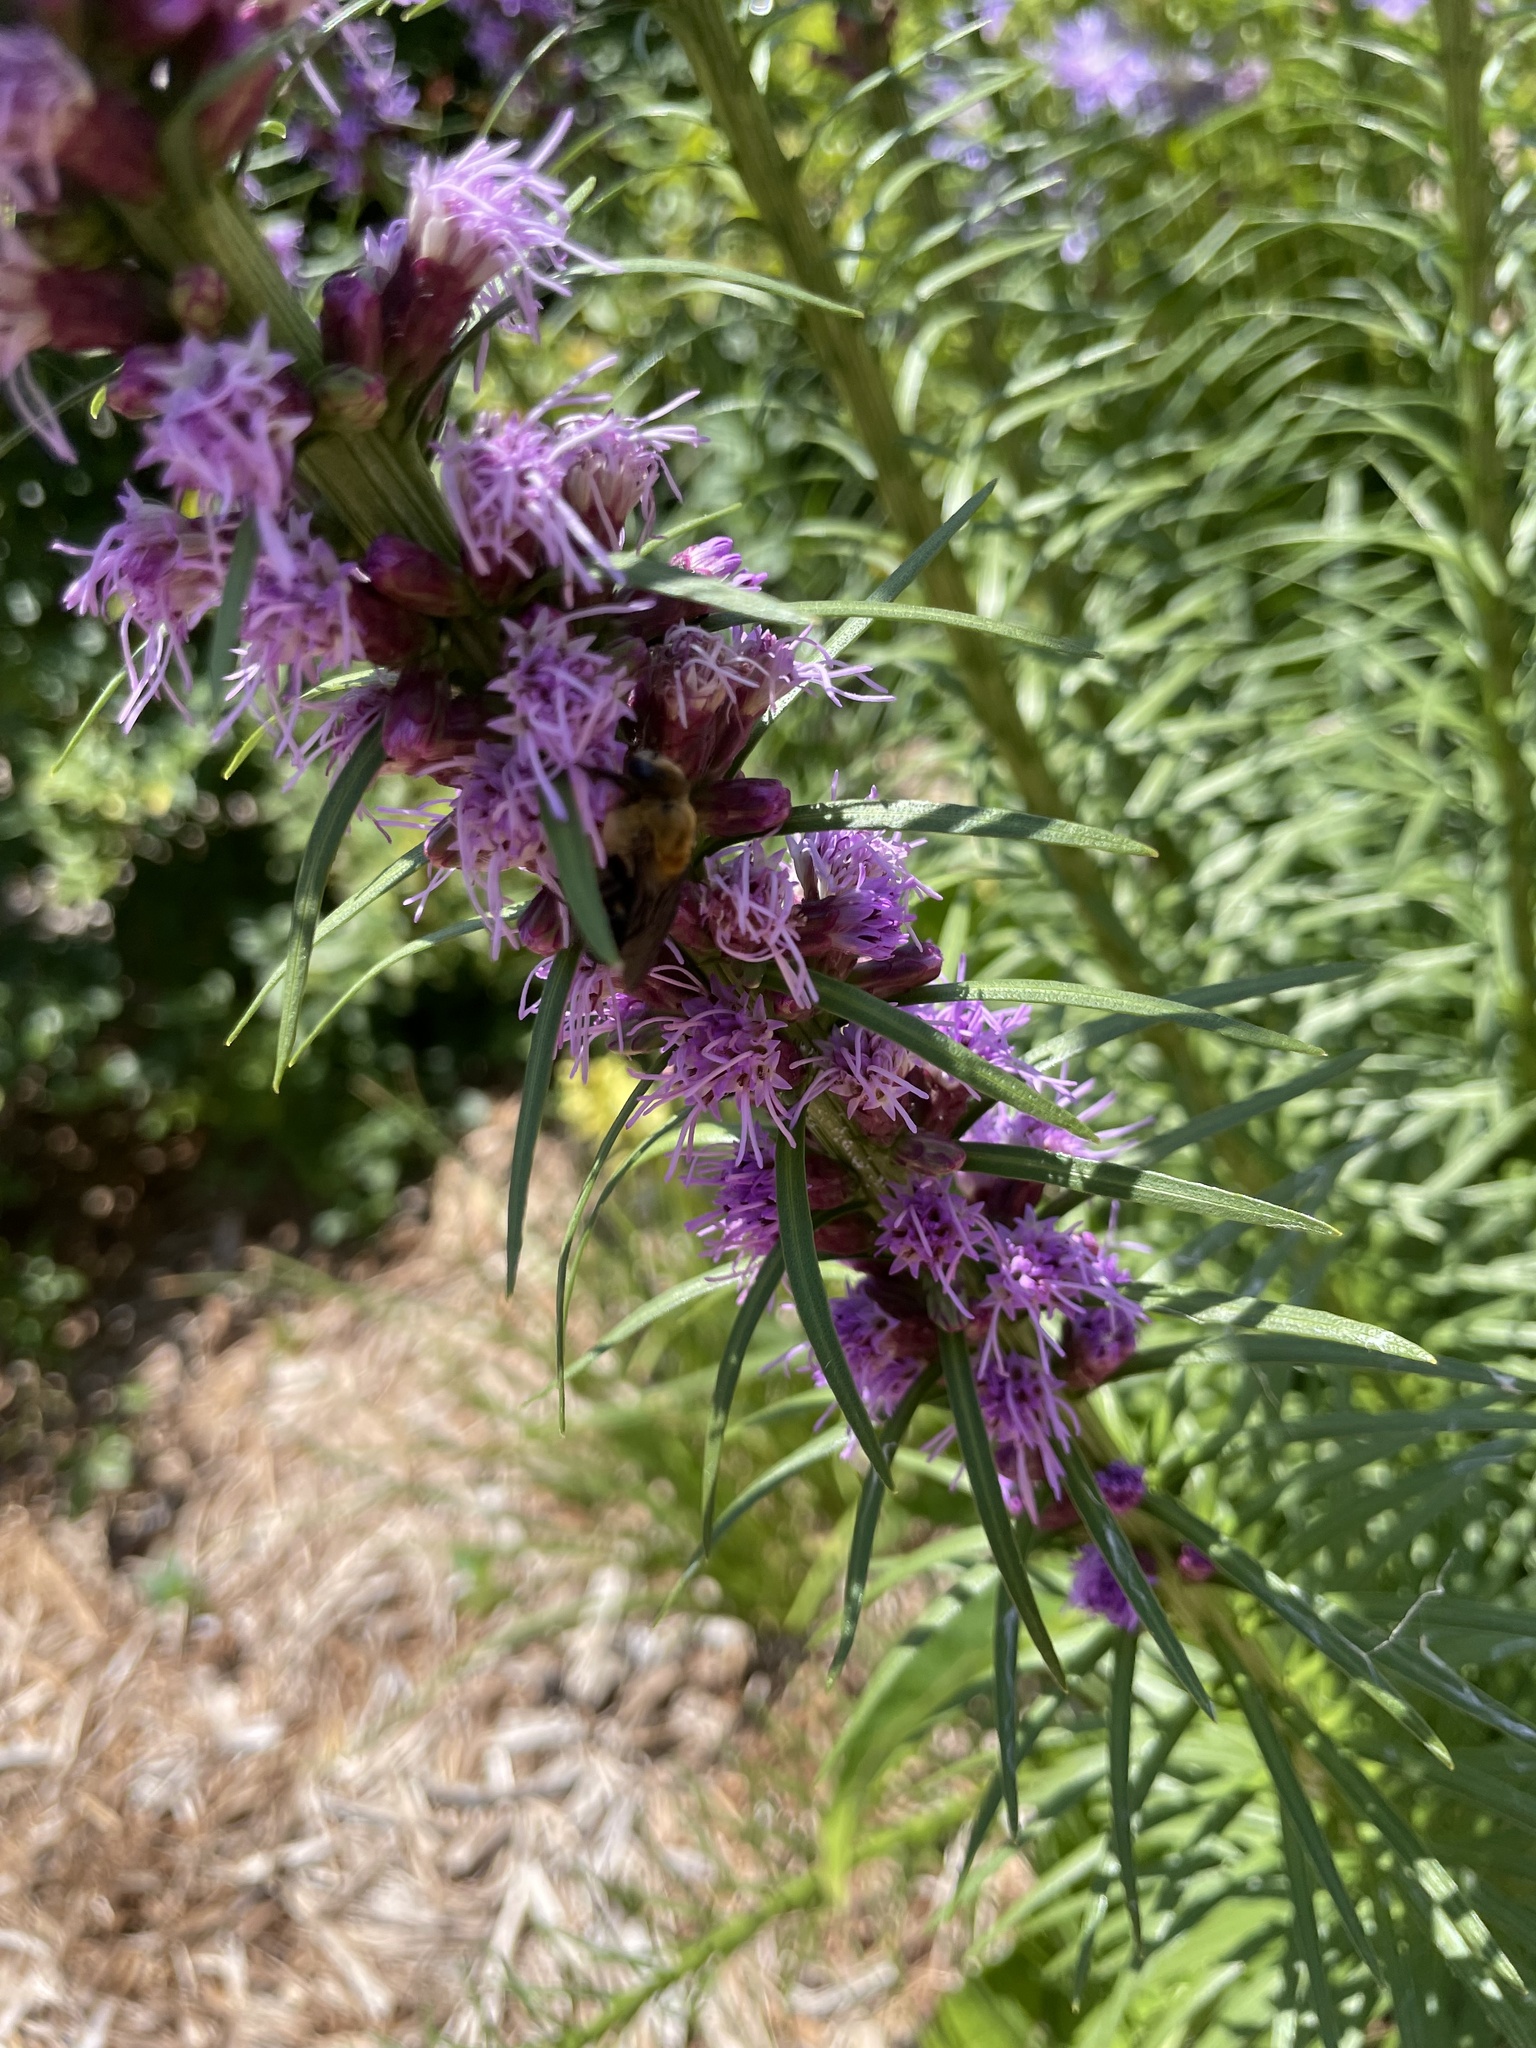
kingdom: Animalia
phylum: Arthropoda
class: Insecta
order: Hymenoptera
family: Apidae
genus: Ptilothrix
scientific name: Ptilothrix bombiformis
